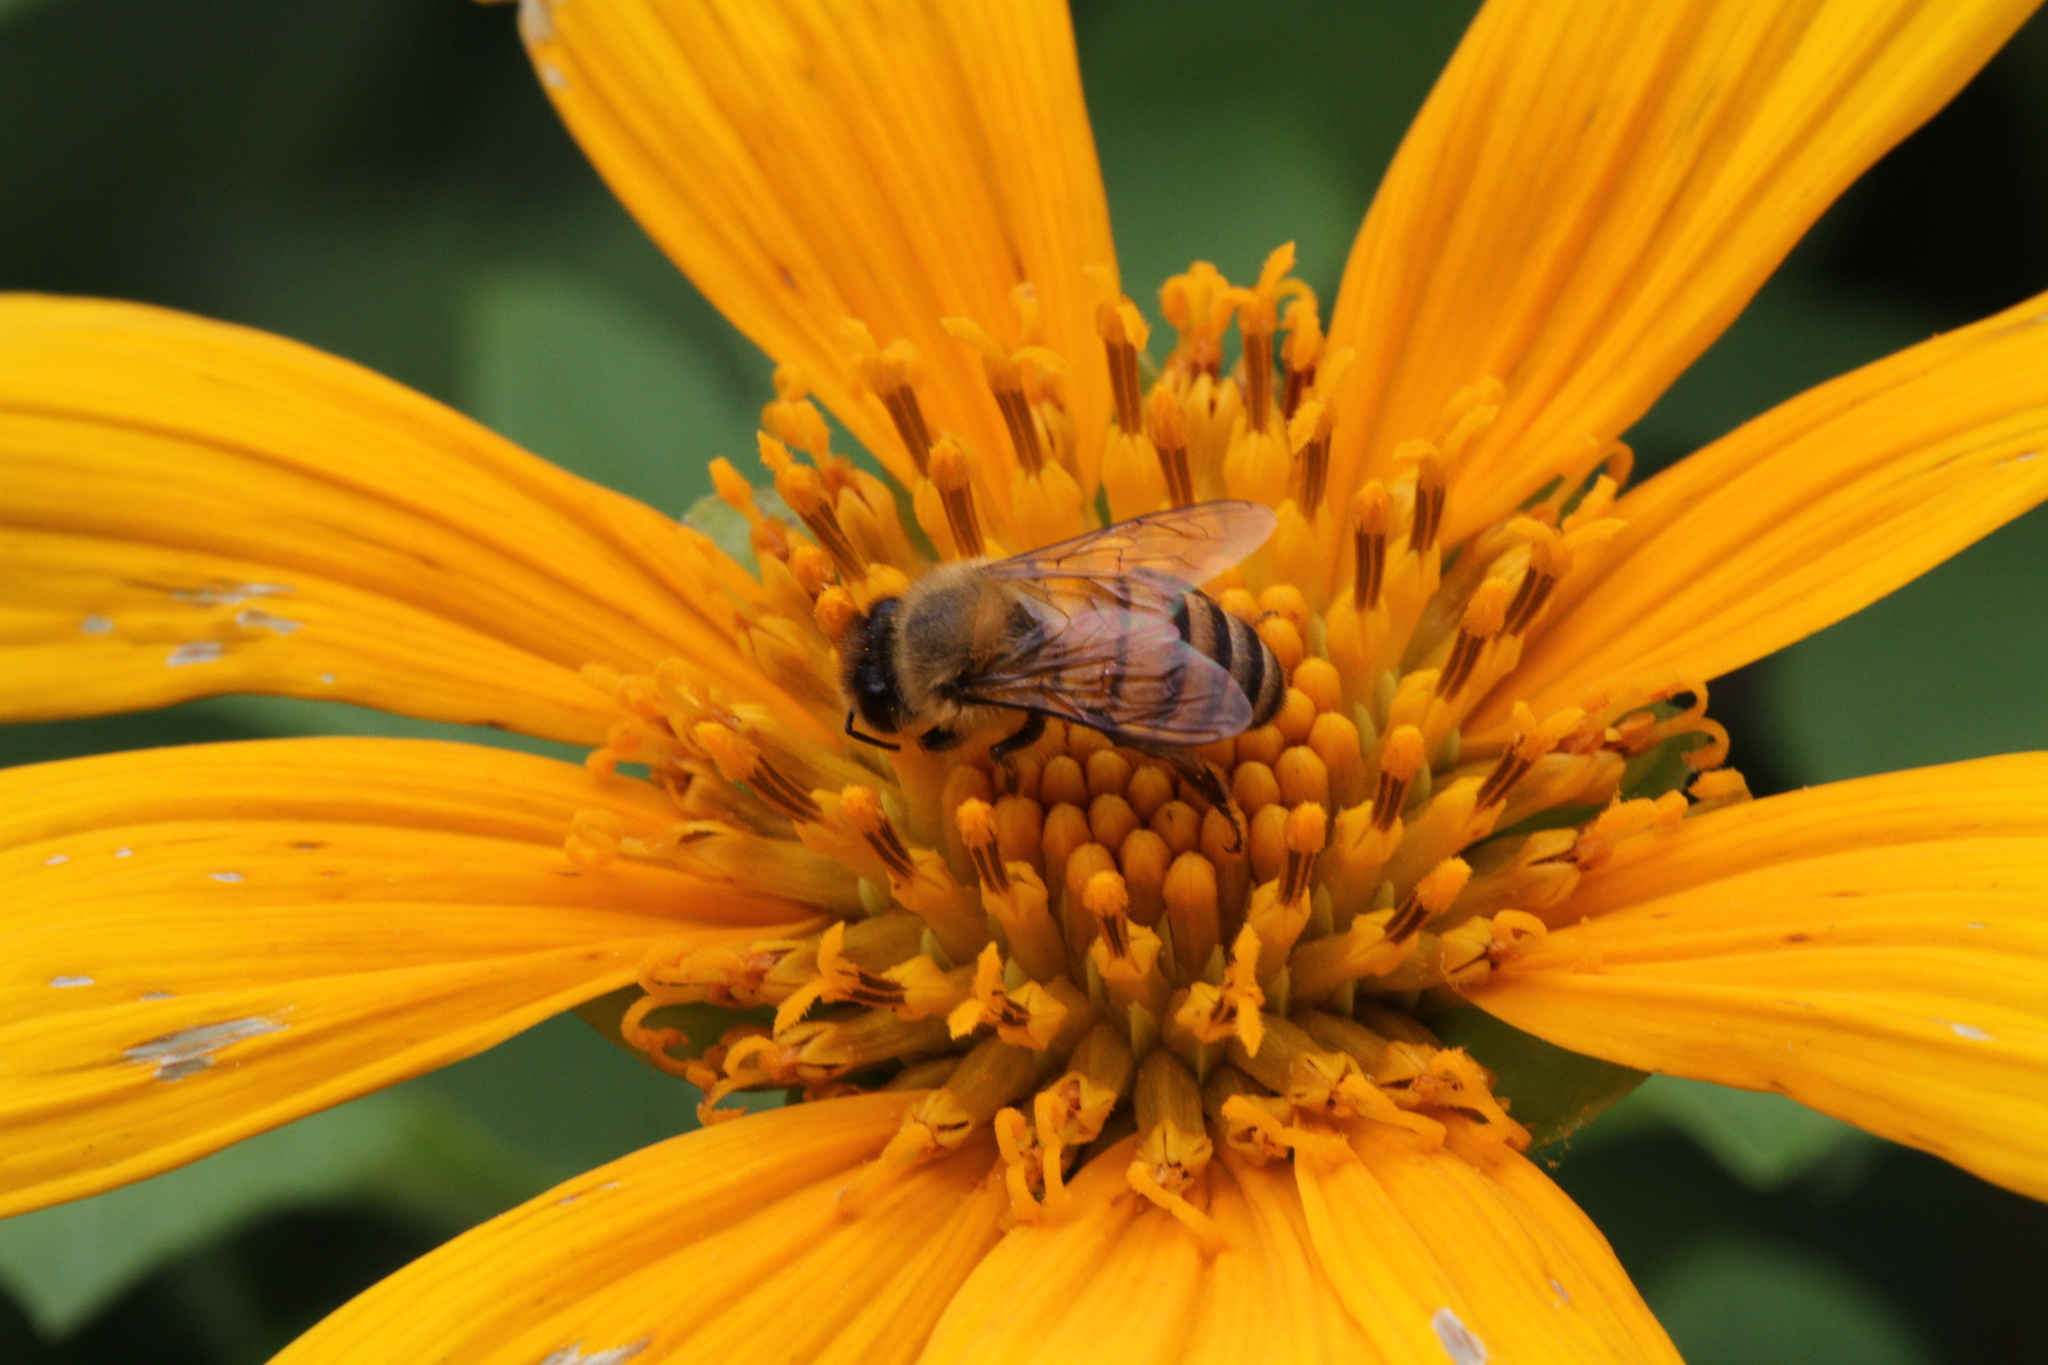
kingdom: Animalia
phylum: Arthropoda
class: Insecta
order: Hymenoptera
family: Apidae
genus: Apis
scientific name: Apis mellifera
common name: Honey bee
